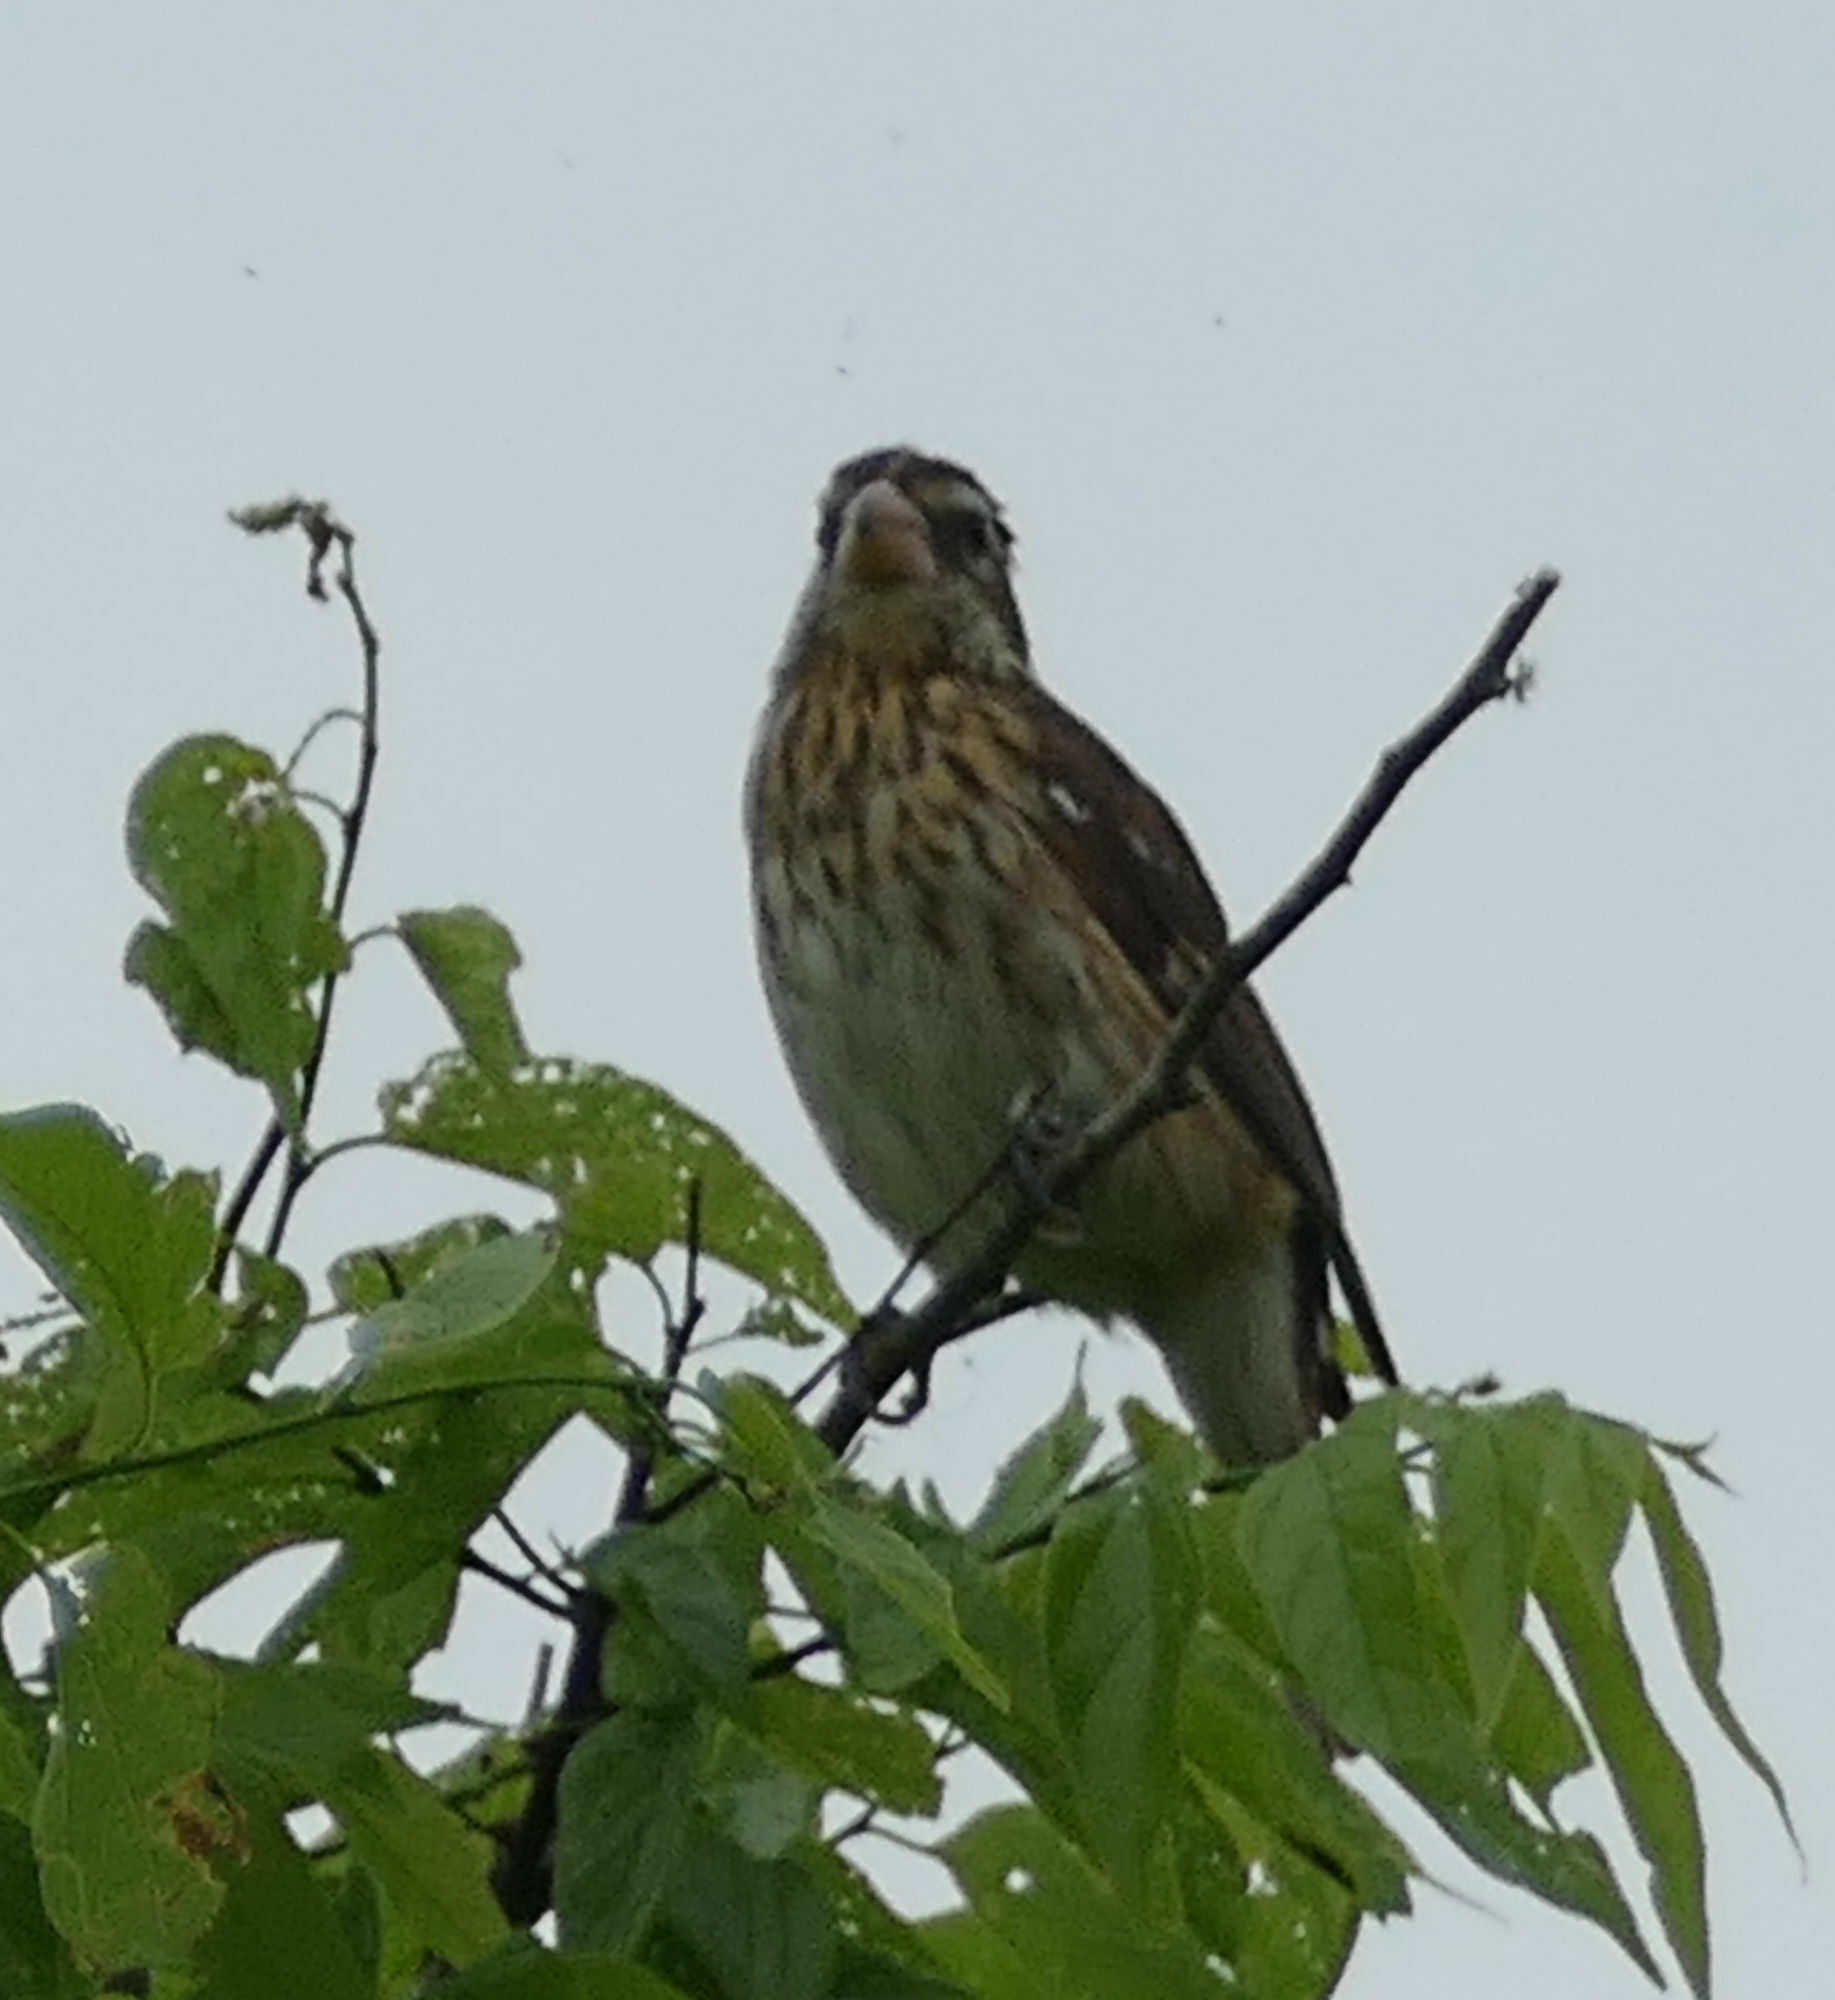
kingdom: Animalia
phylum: Chordata
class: Aves
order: Passeriformes
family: Cardinalidae
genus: Pheucticus
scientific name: Pheucticus ludovicianus
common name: Rose-breasted grosbeak
